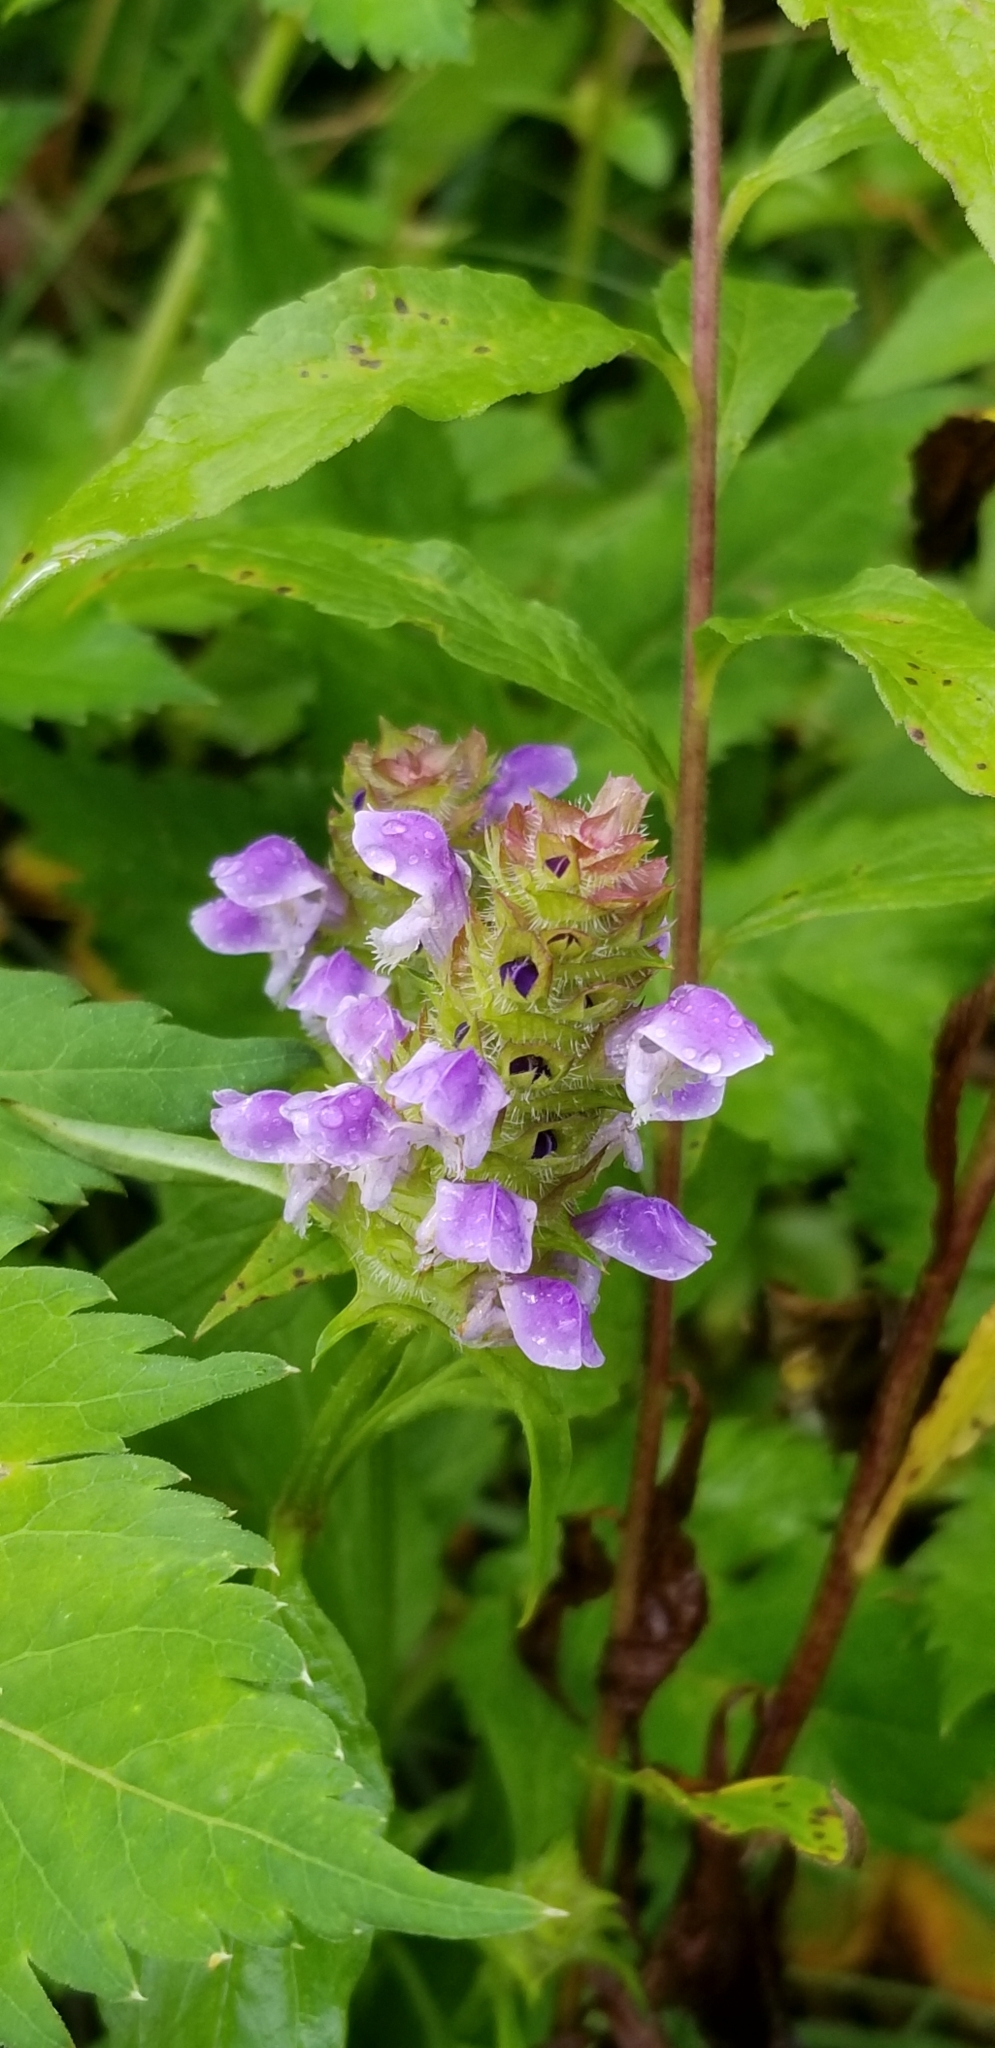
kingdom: Plantae
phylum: Tracheophyta
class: Magnoliopsida
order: Lamiales
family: Lamiaceae
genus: Prunella
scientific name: Prunella vulgaris
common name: Heal-all
